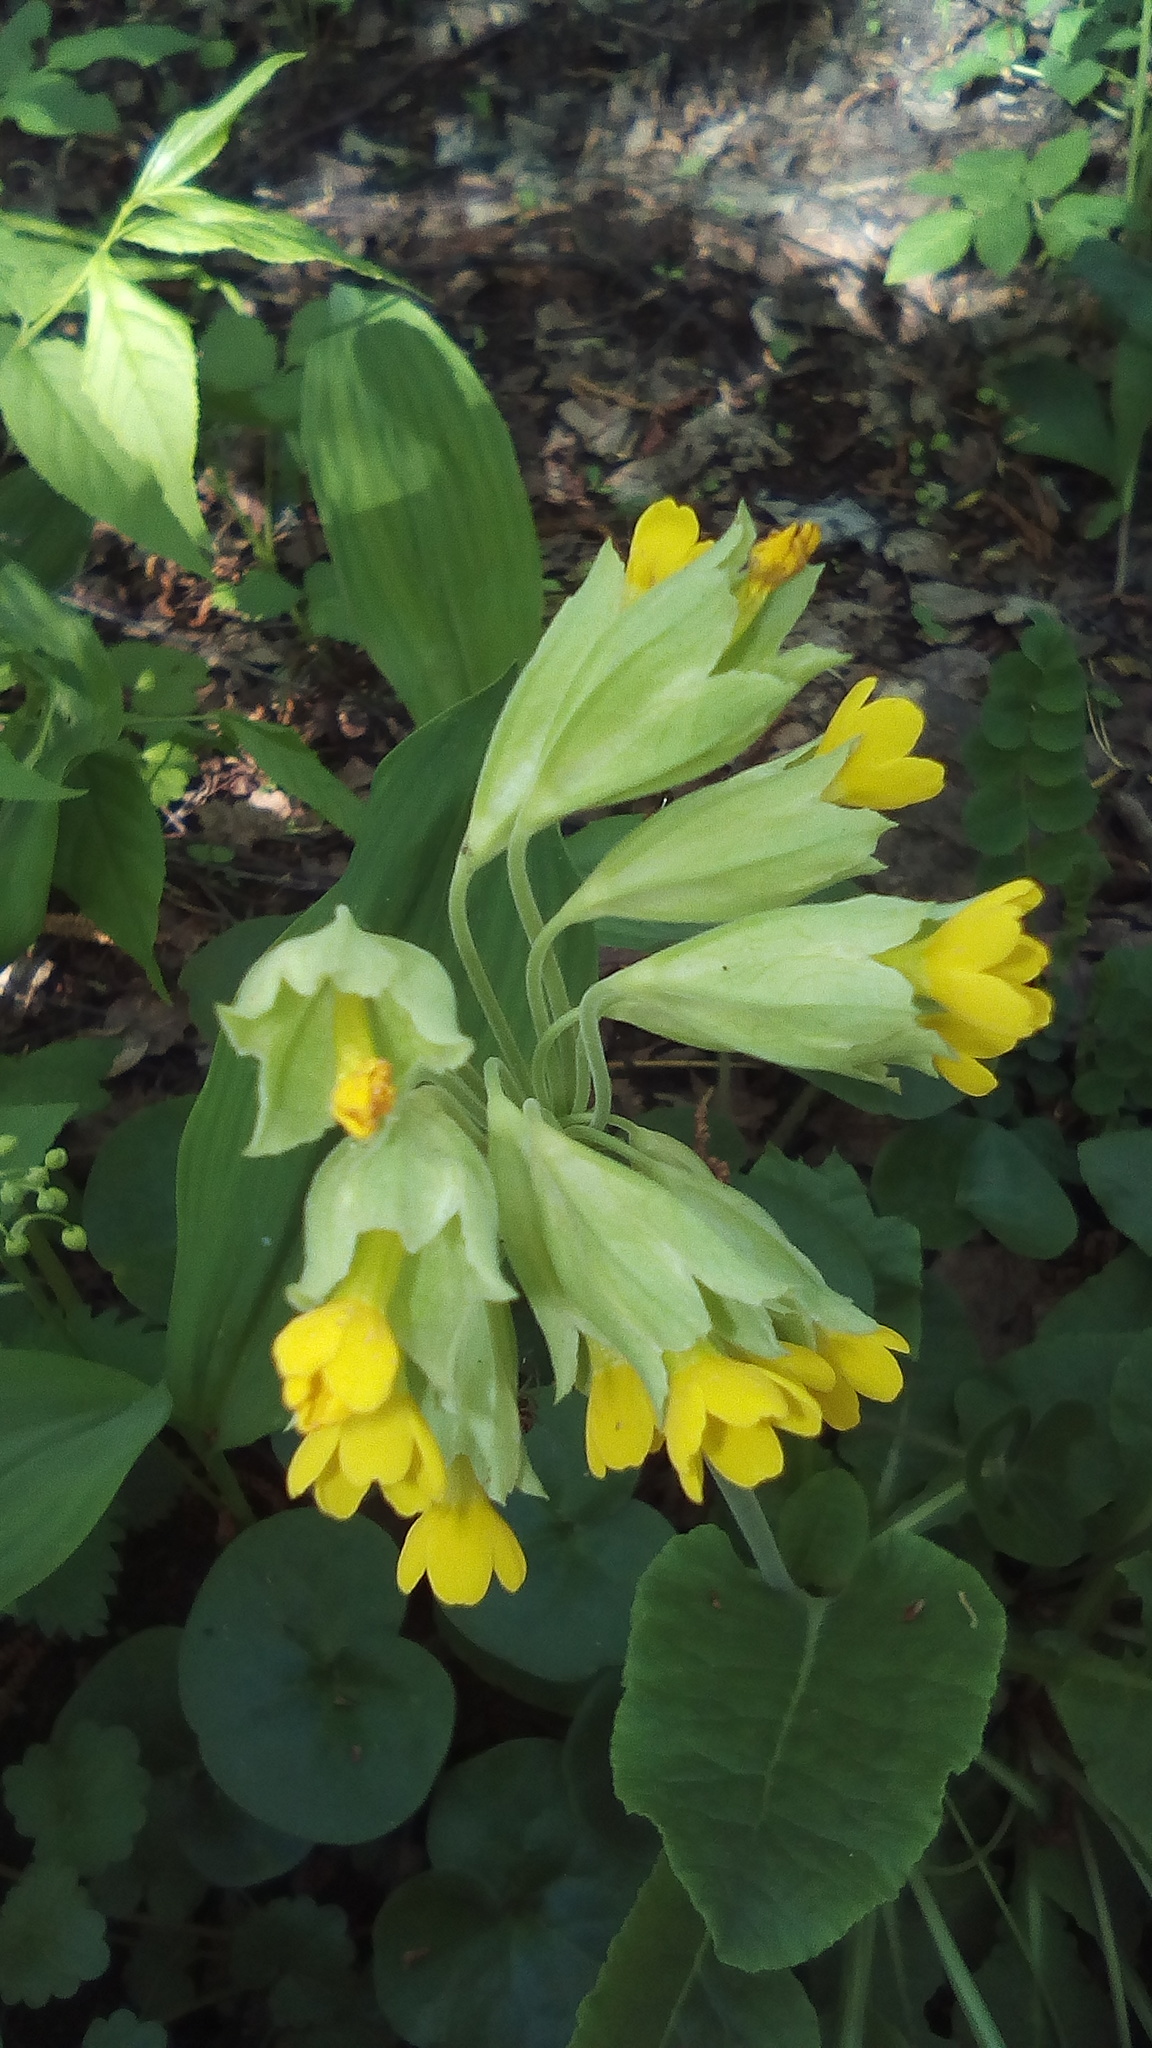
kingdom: Plantae
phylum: Tracheophyta
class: Magnoliopsida
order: Ericales
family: Primulaceae
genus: Primula
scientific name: Primula veris
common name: Cowslip
